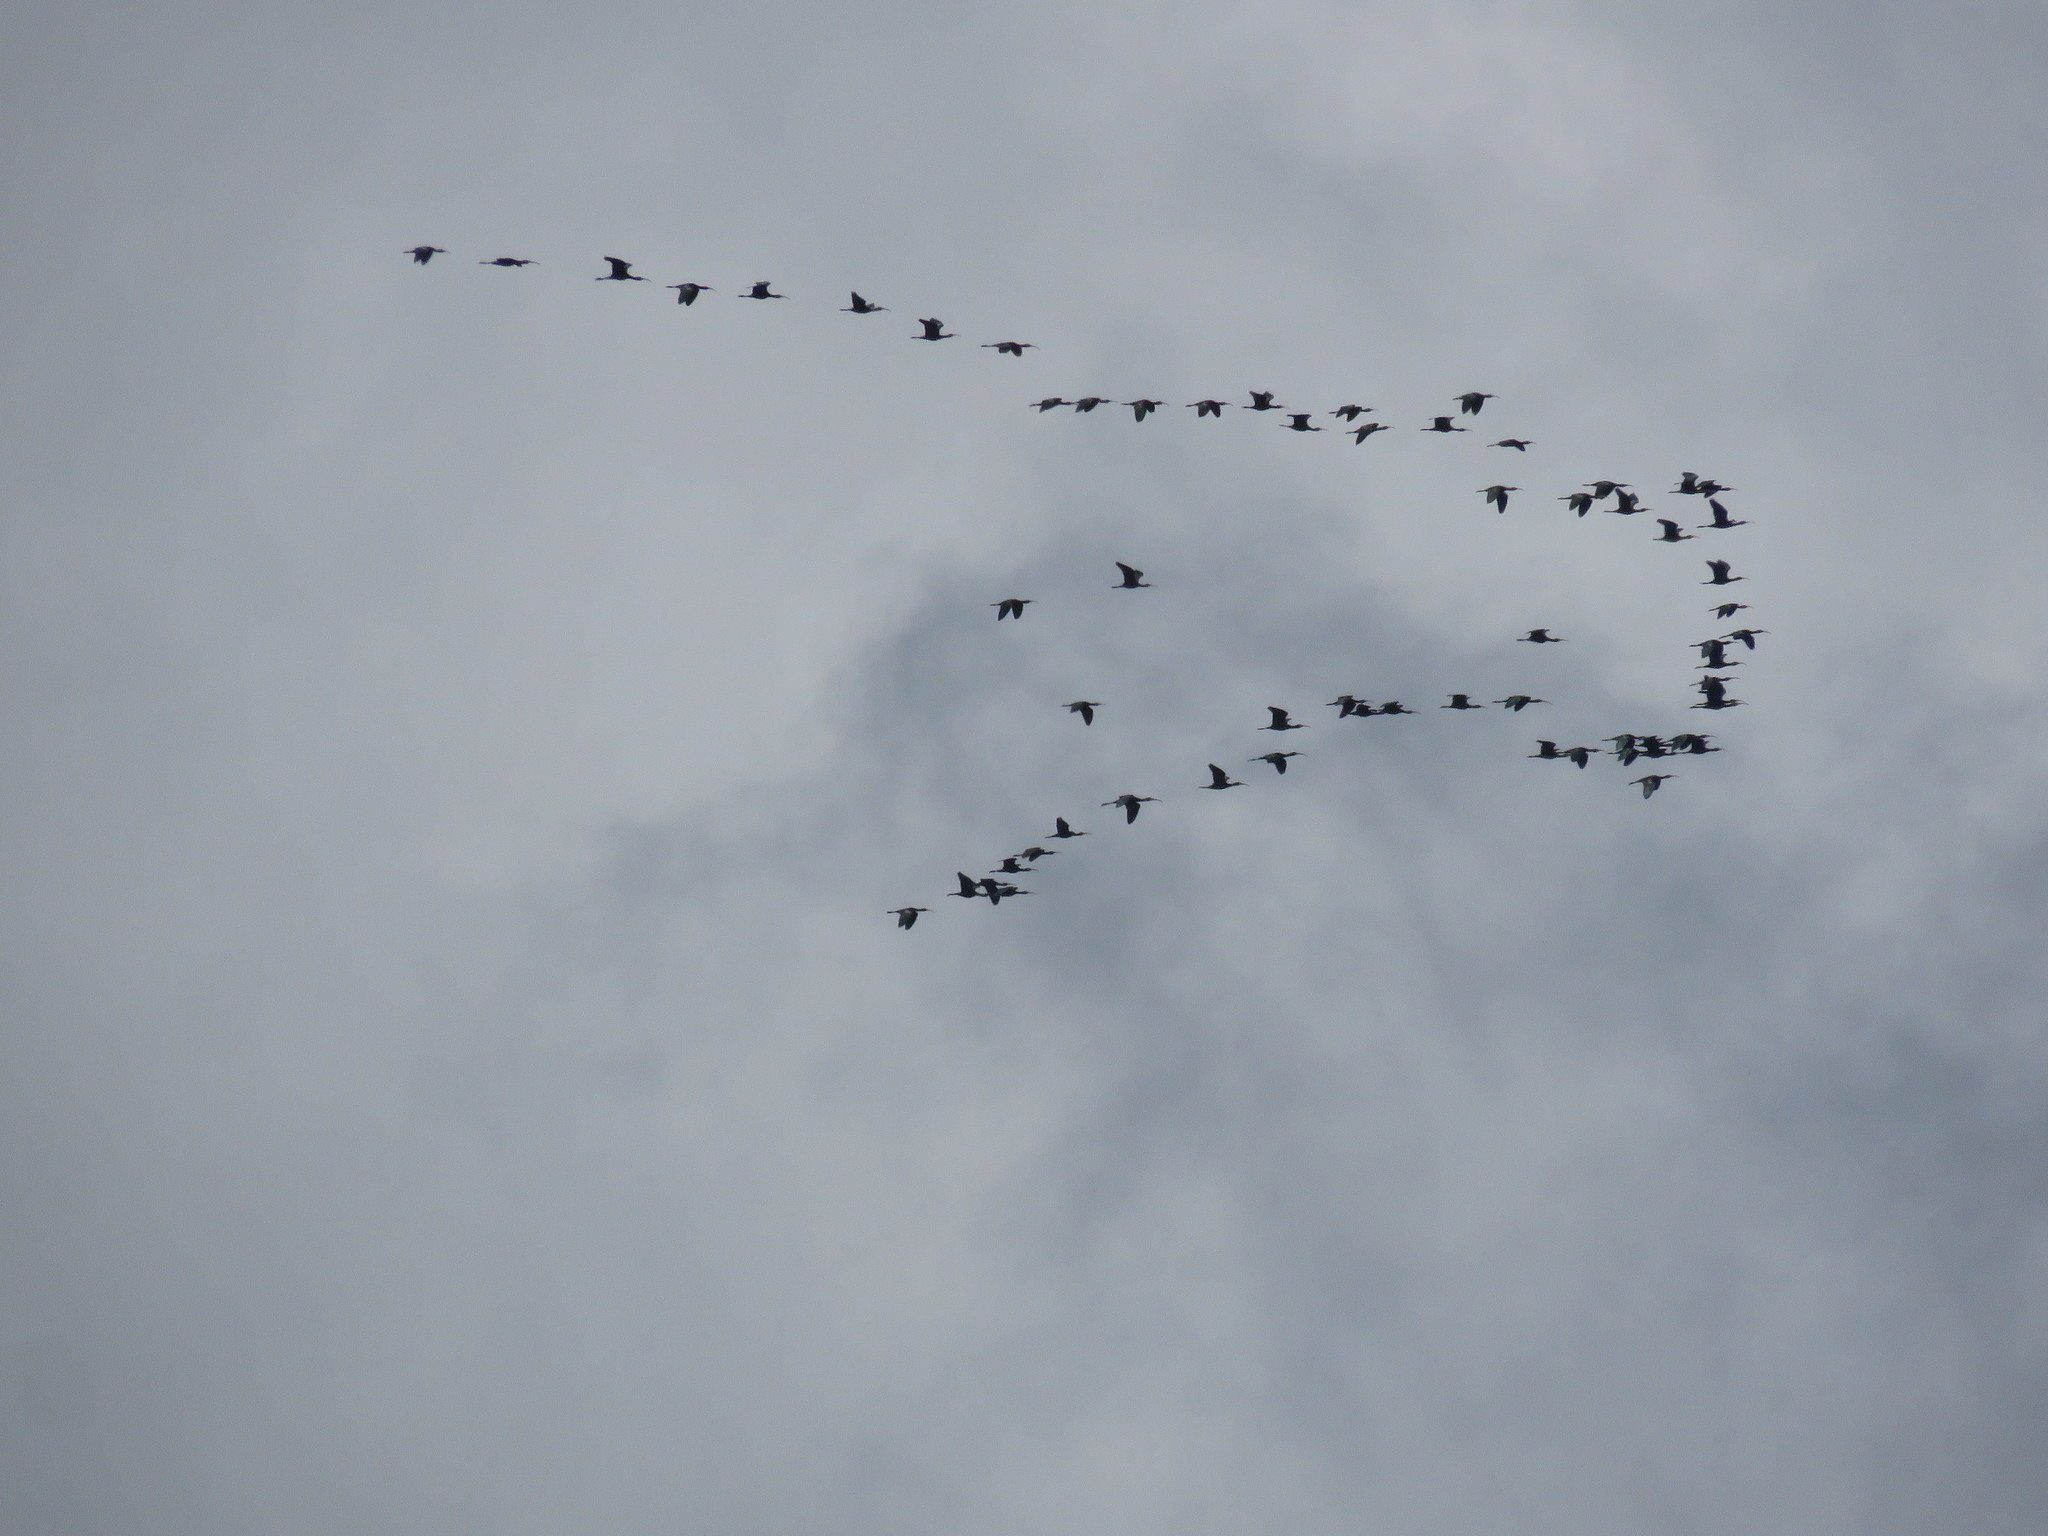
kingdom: Animalia
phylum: Chordata
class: Aves
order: Pelecaniformes
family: Threskiornithidae
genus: Plegadis
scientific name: Plegadis chihi
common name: White-faced ibis
